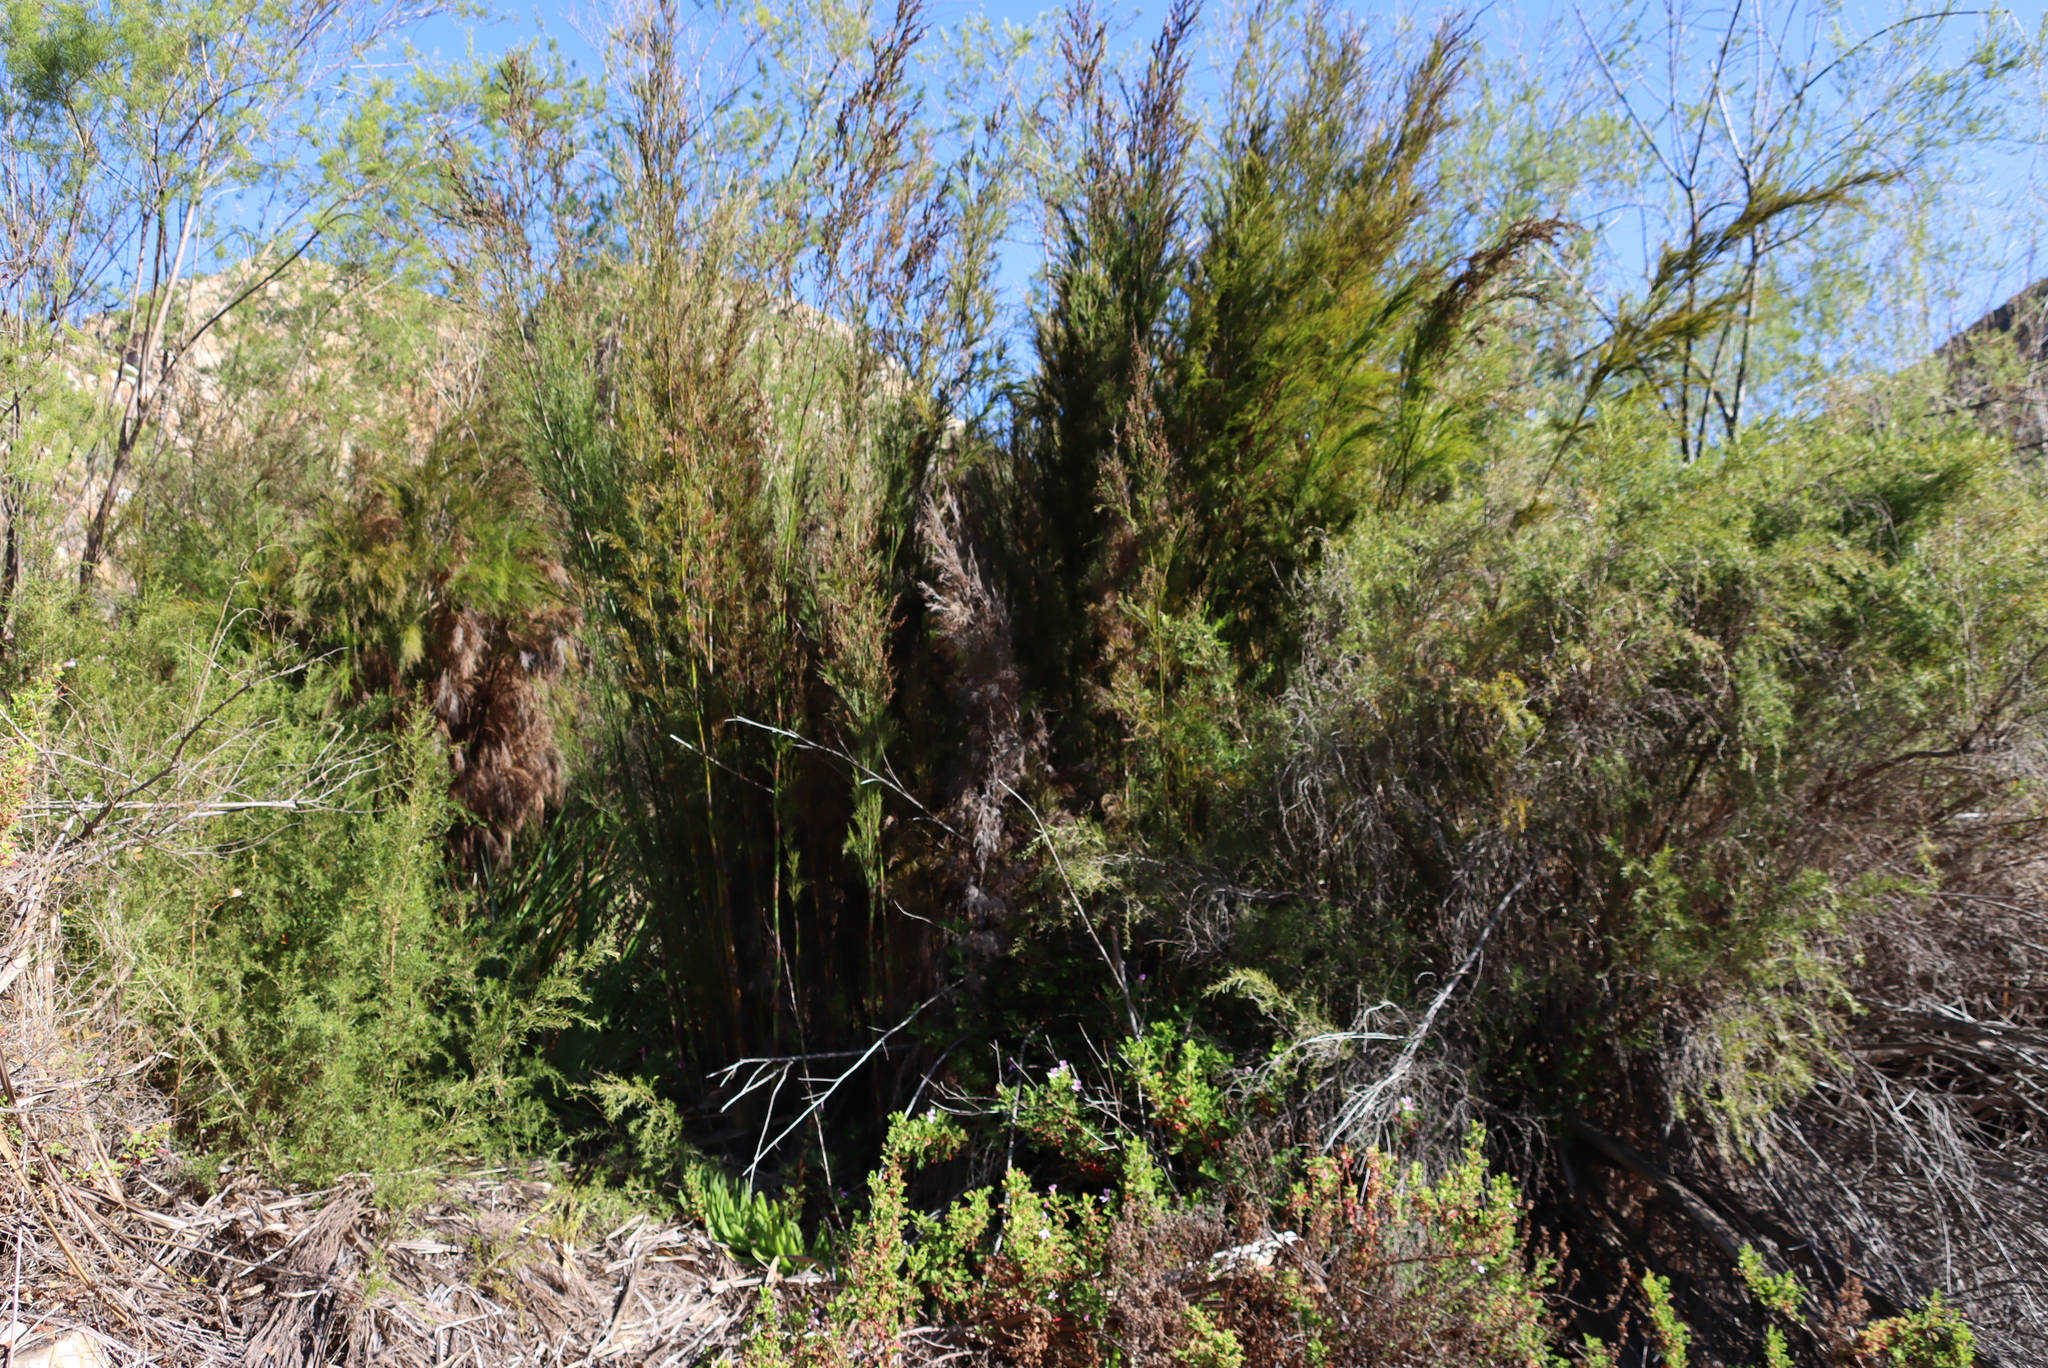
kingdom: Plantae
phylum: Tracheophyta
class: Liliopsida
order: Poales
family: Restionaceae
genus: Restio
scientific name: Restio paniculatus
